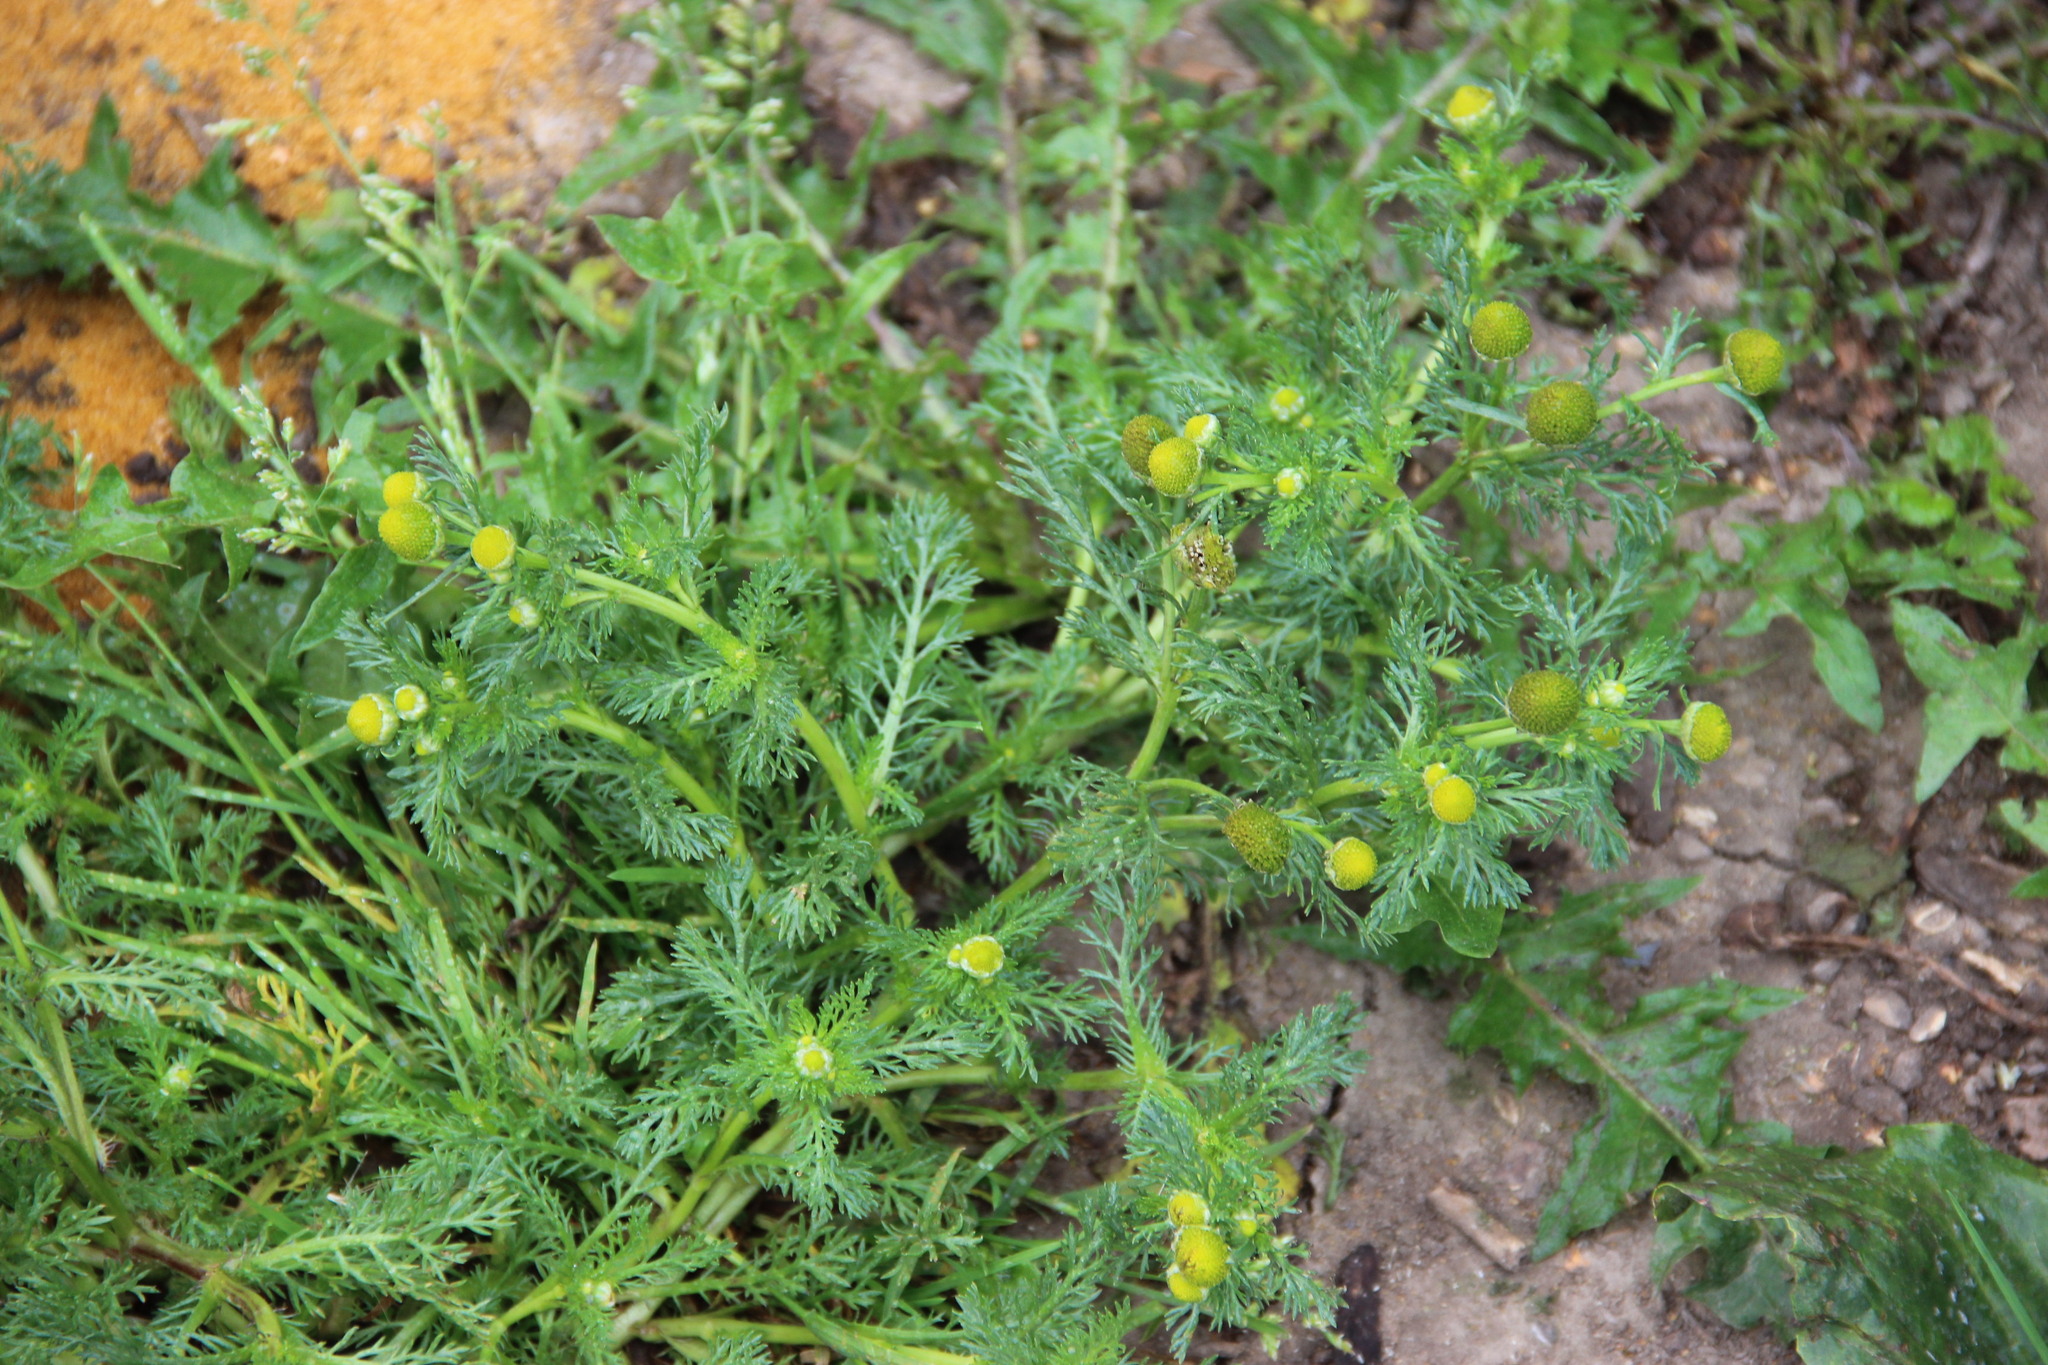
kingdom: Plantae
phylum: Tracheophyta
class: Magnoliopsida
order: Asterales
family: Asteraceae
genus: Matricaria
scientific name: Matricaria discoidea
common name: Disc mayweed
